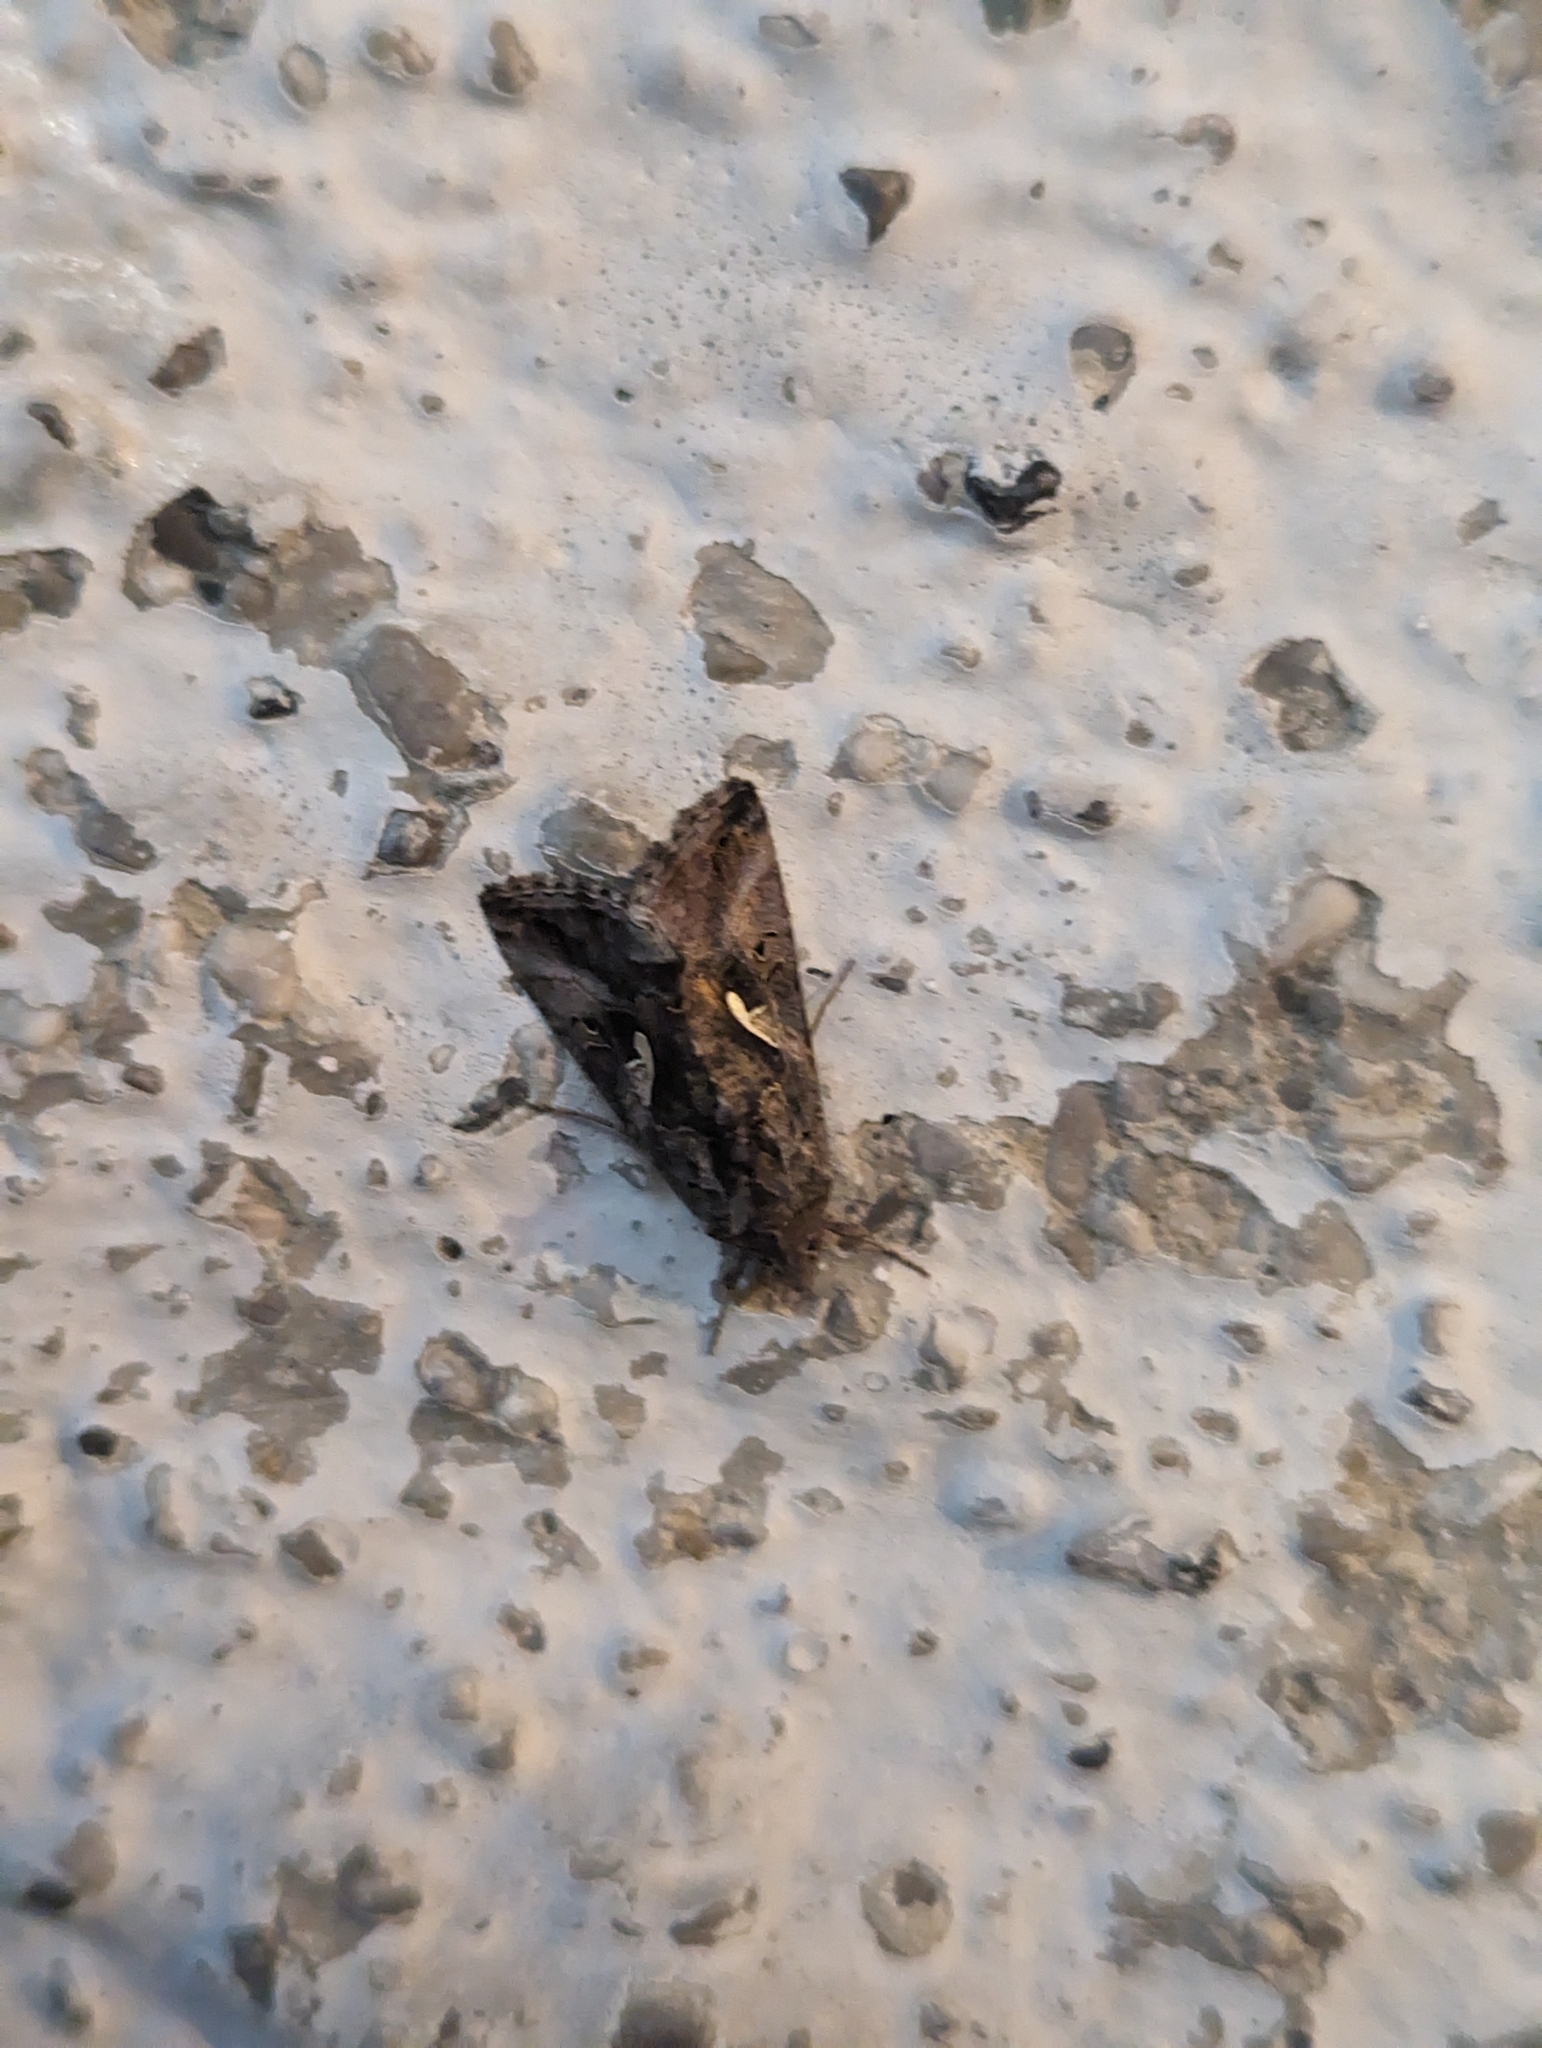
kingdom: Animalia
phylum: Arthropoda
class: Insecta
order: Lepidoptera
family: Noctuidae
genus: Autographa
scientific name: Autographa gamma
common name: Silver y
